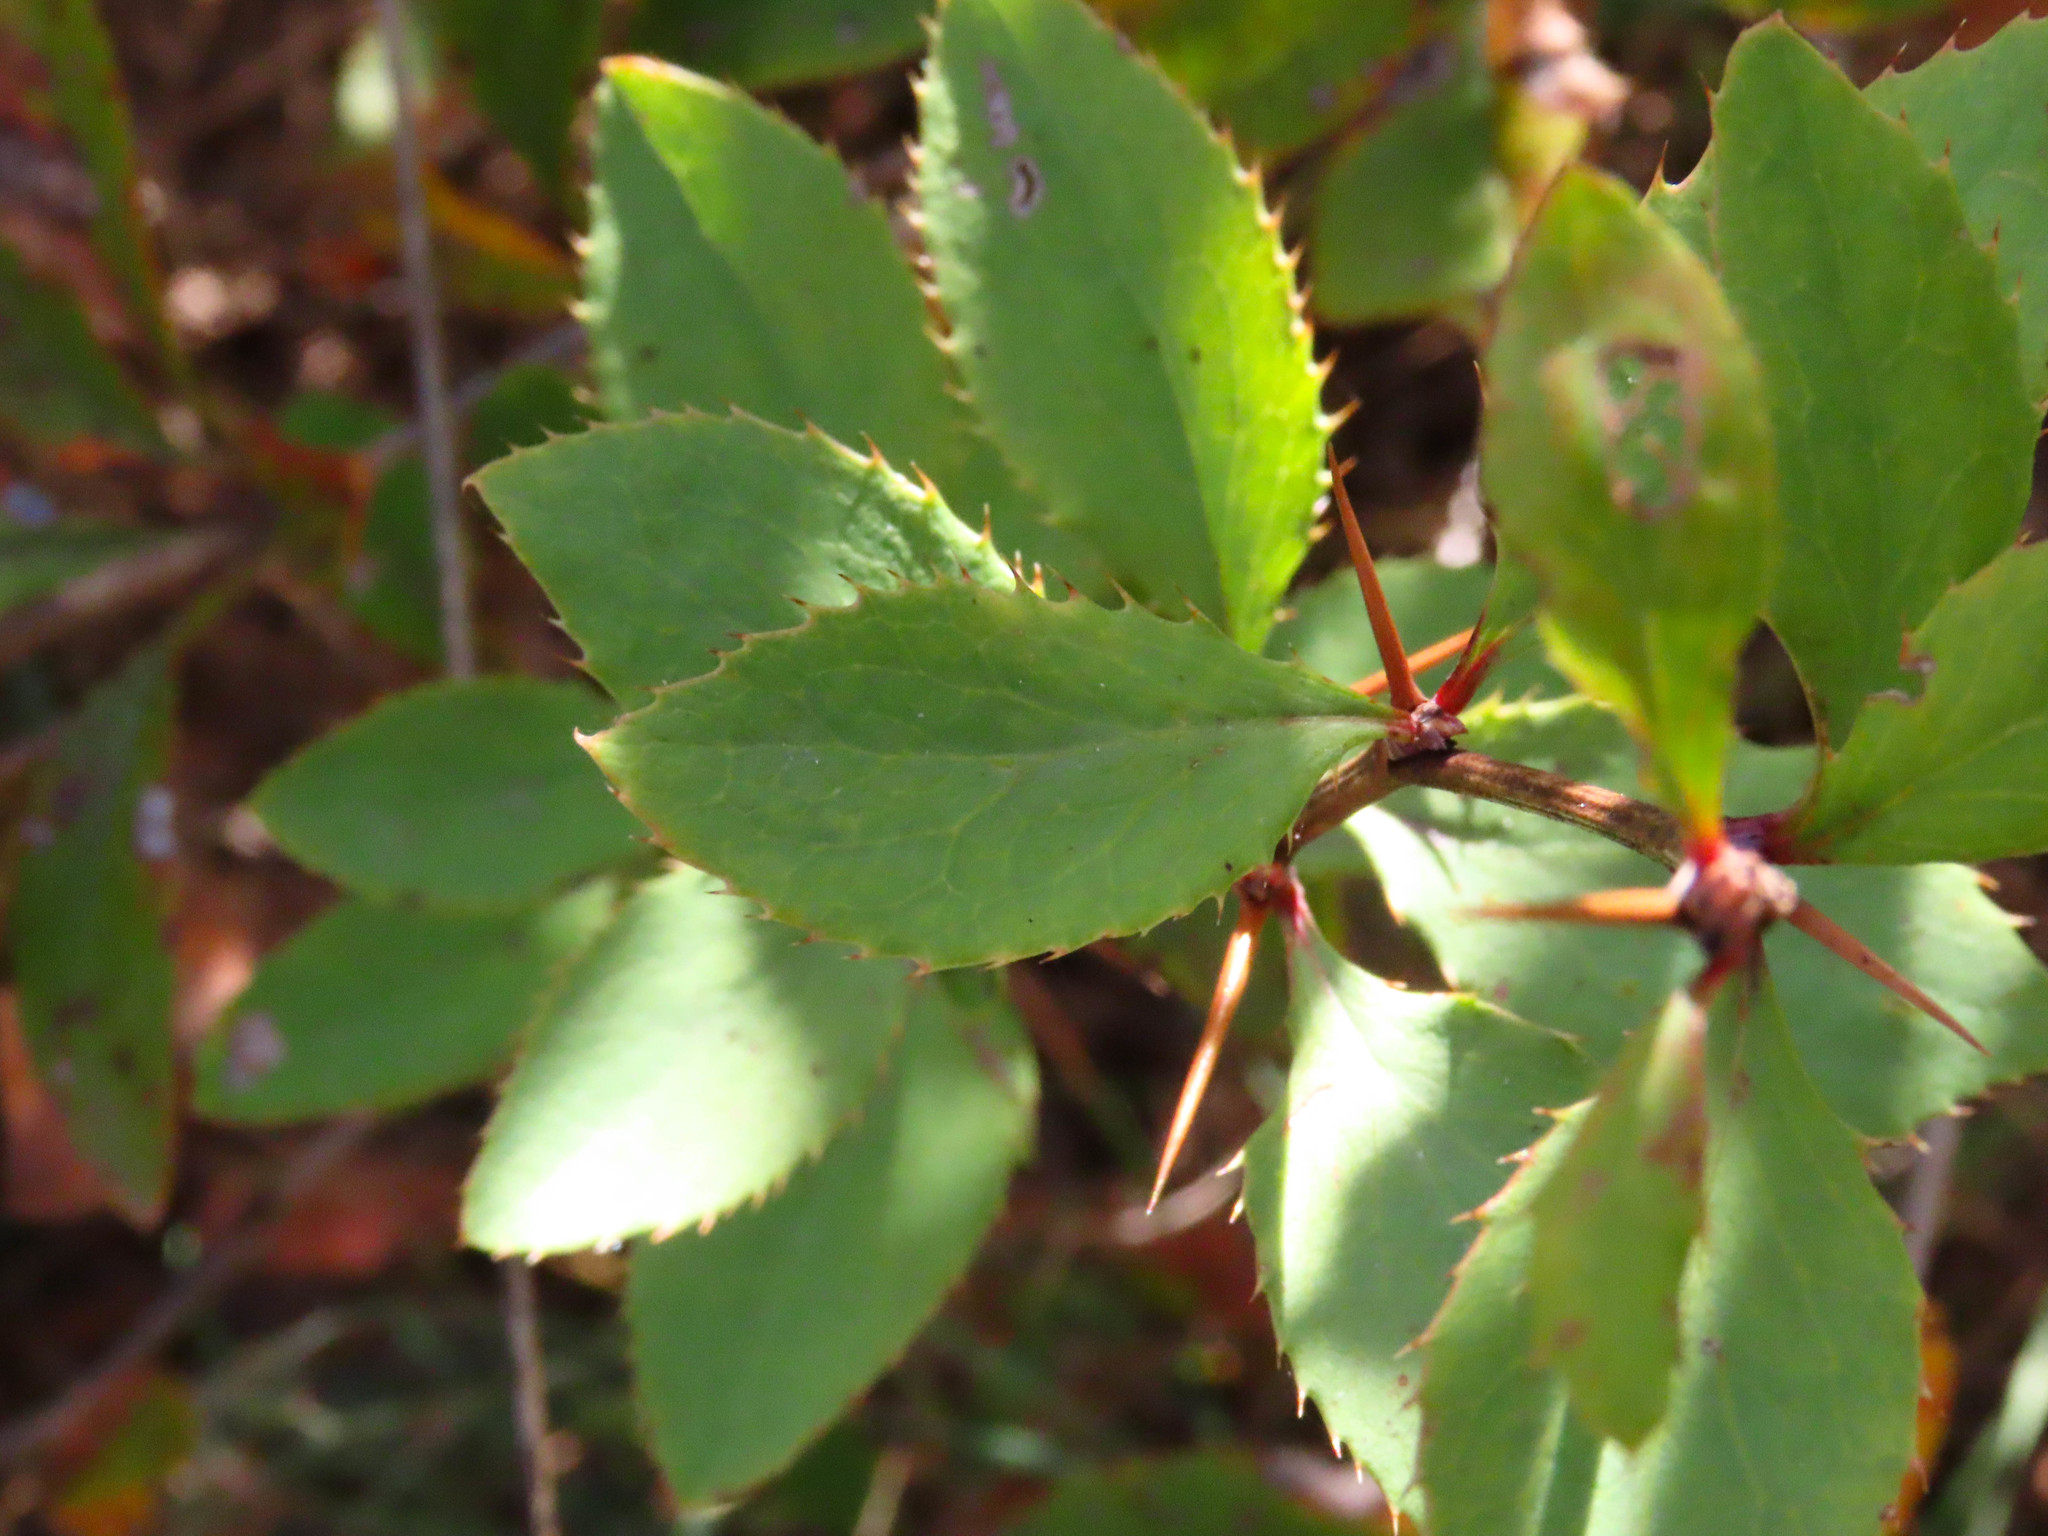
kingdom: Plantae
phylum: Tracheophyta
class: Magnoliopsida
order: Ranunculales
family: Berberidaceae
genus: Berberis
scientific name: Berberis vulgaris
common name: Barberry
